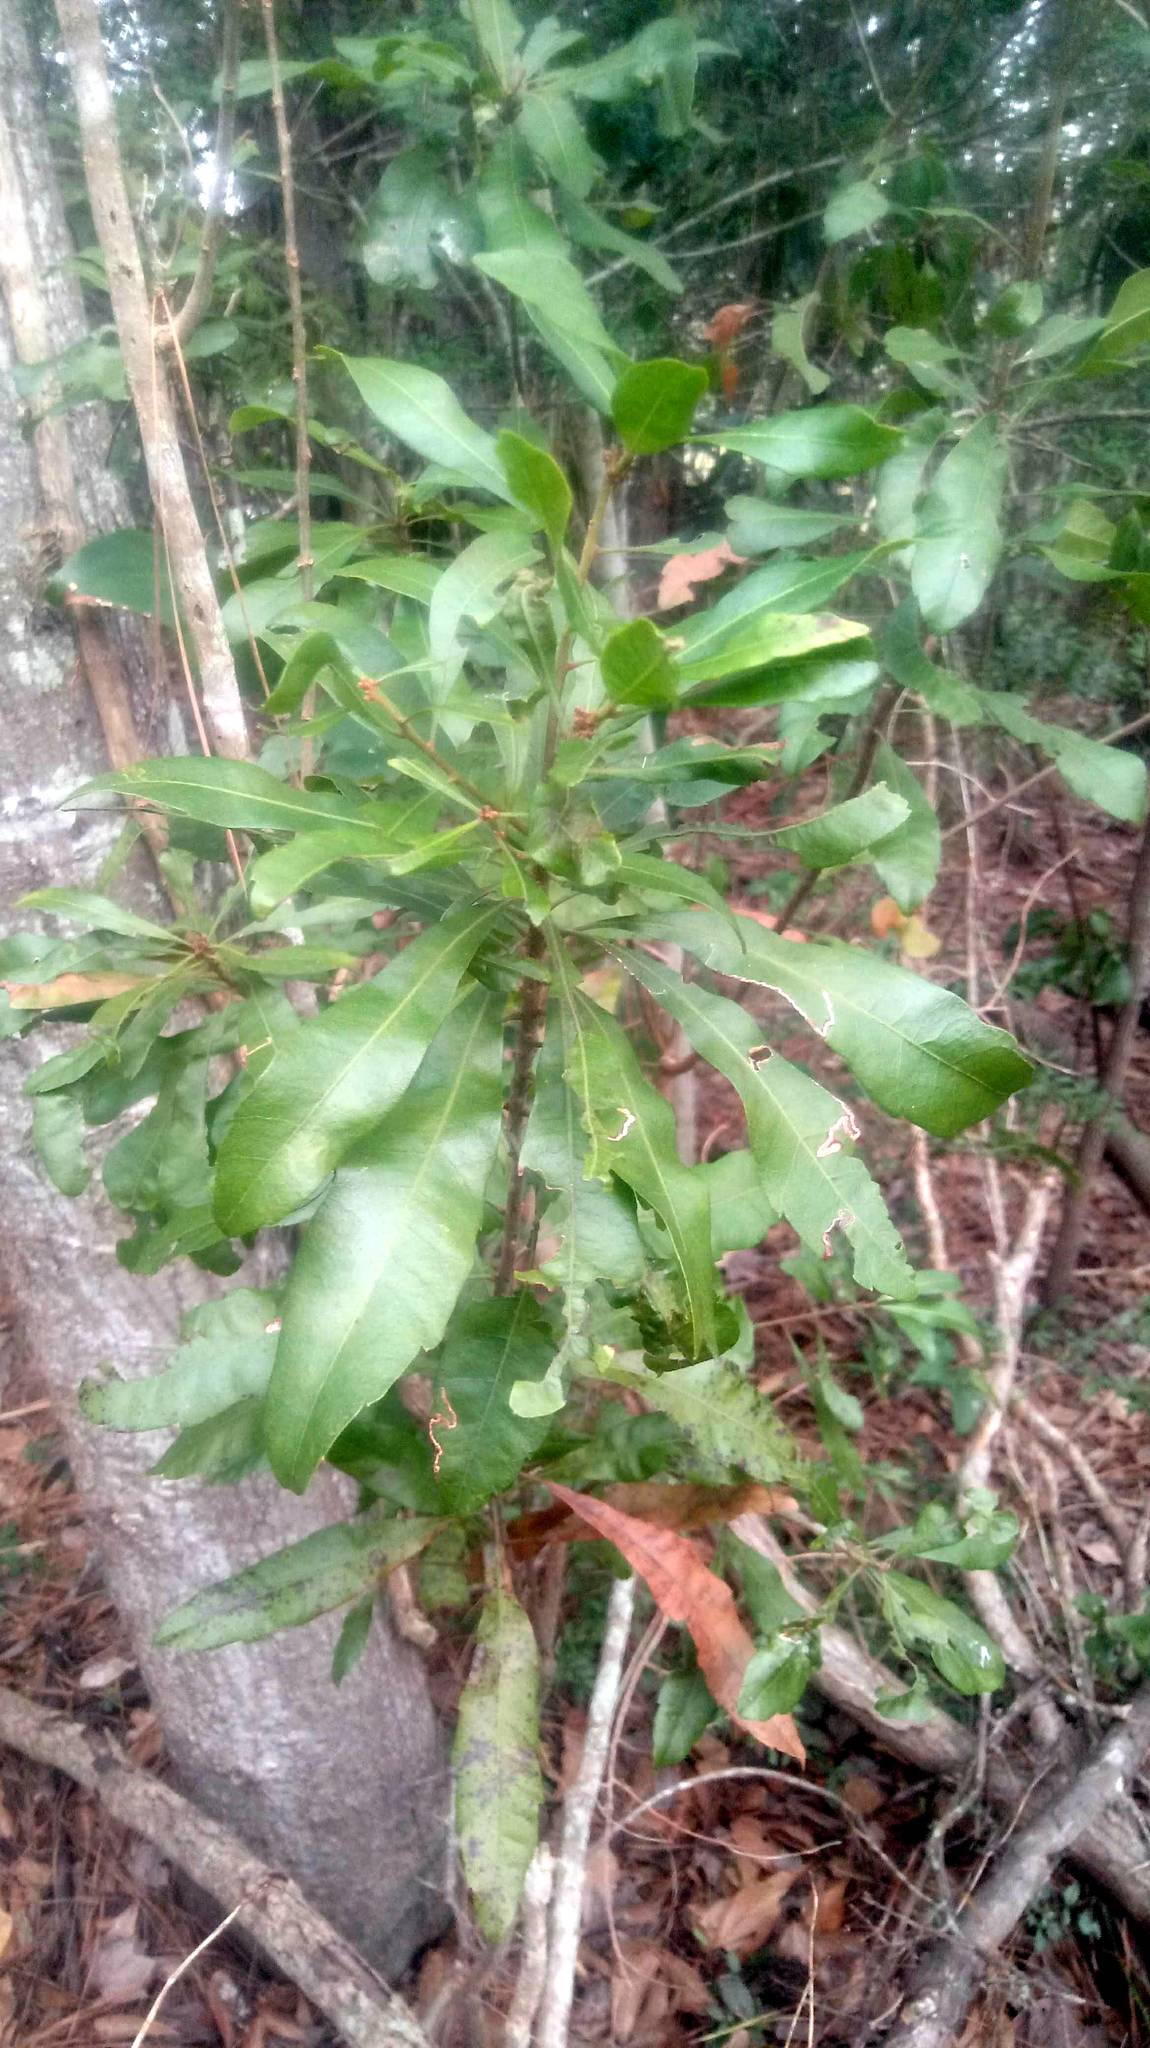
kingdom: Plantae
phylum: Tracheophyta
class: Magnoliopsida
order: Fagales
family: Myricaceae
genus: Morella
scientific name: Morella cerifera
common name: Wax myrtle
